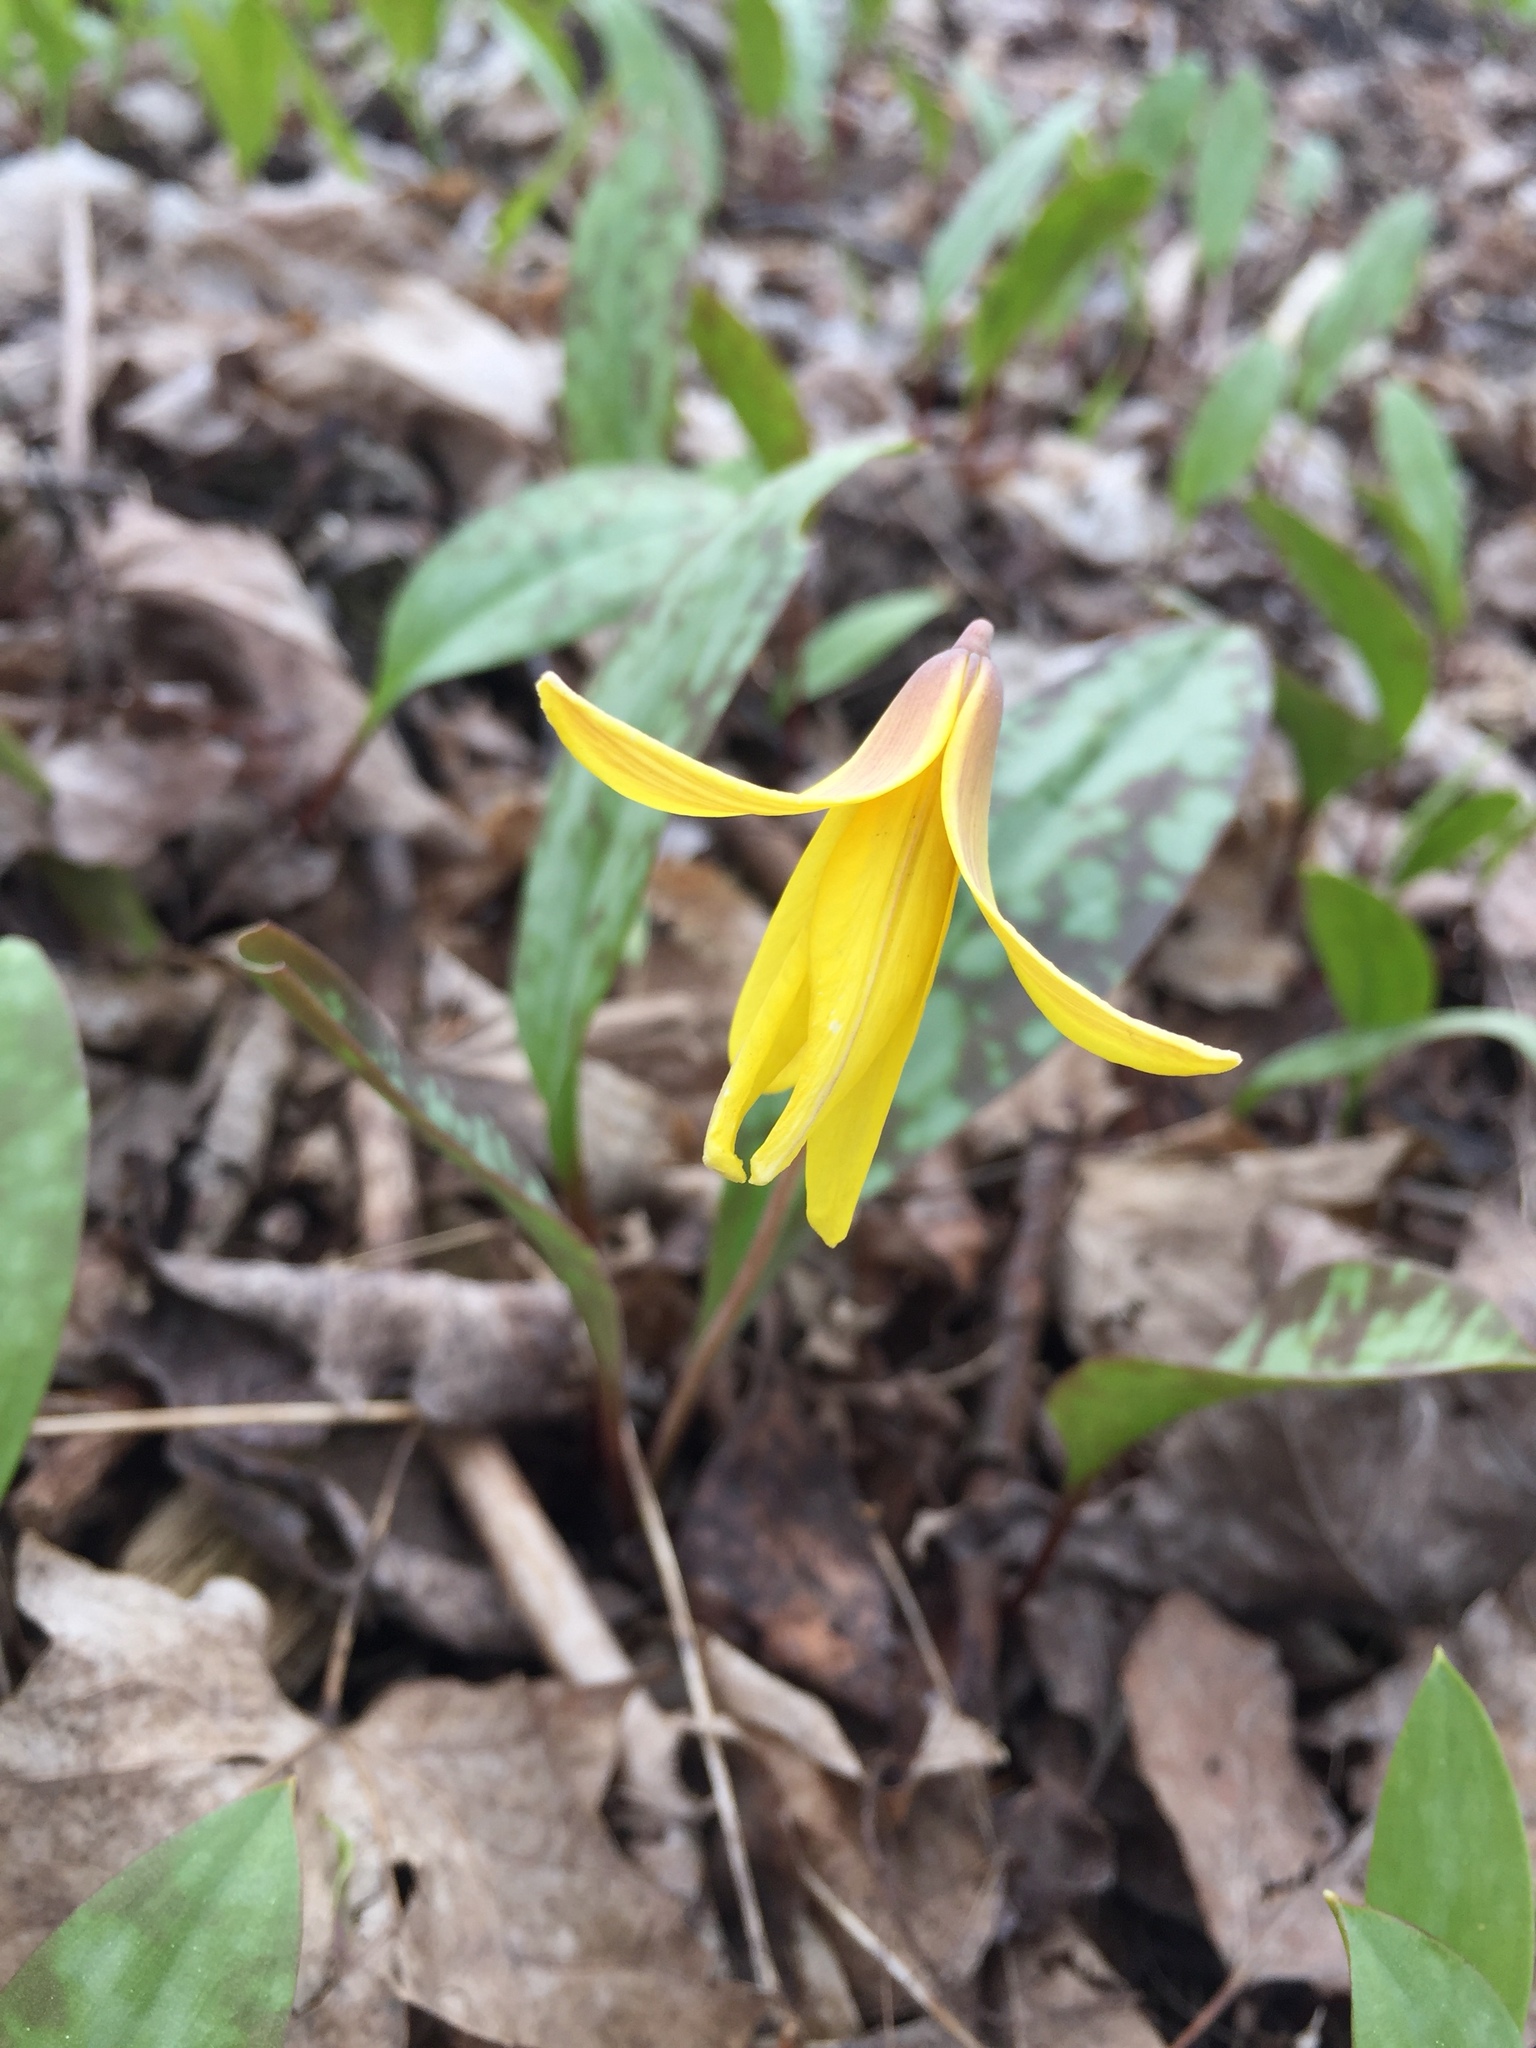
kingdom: Plantae
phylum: Tracheophyta
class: Liliopsida
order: Liliales
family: Liliaceae
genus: Erythronium
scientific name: Erythronium americanum
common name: Yellow adder's-tongue
